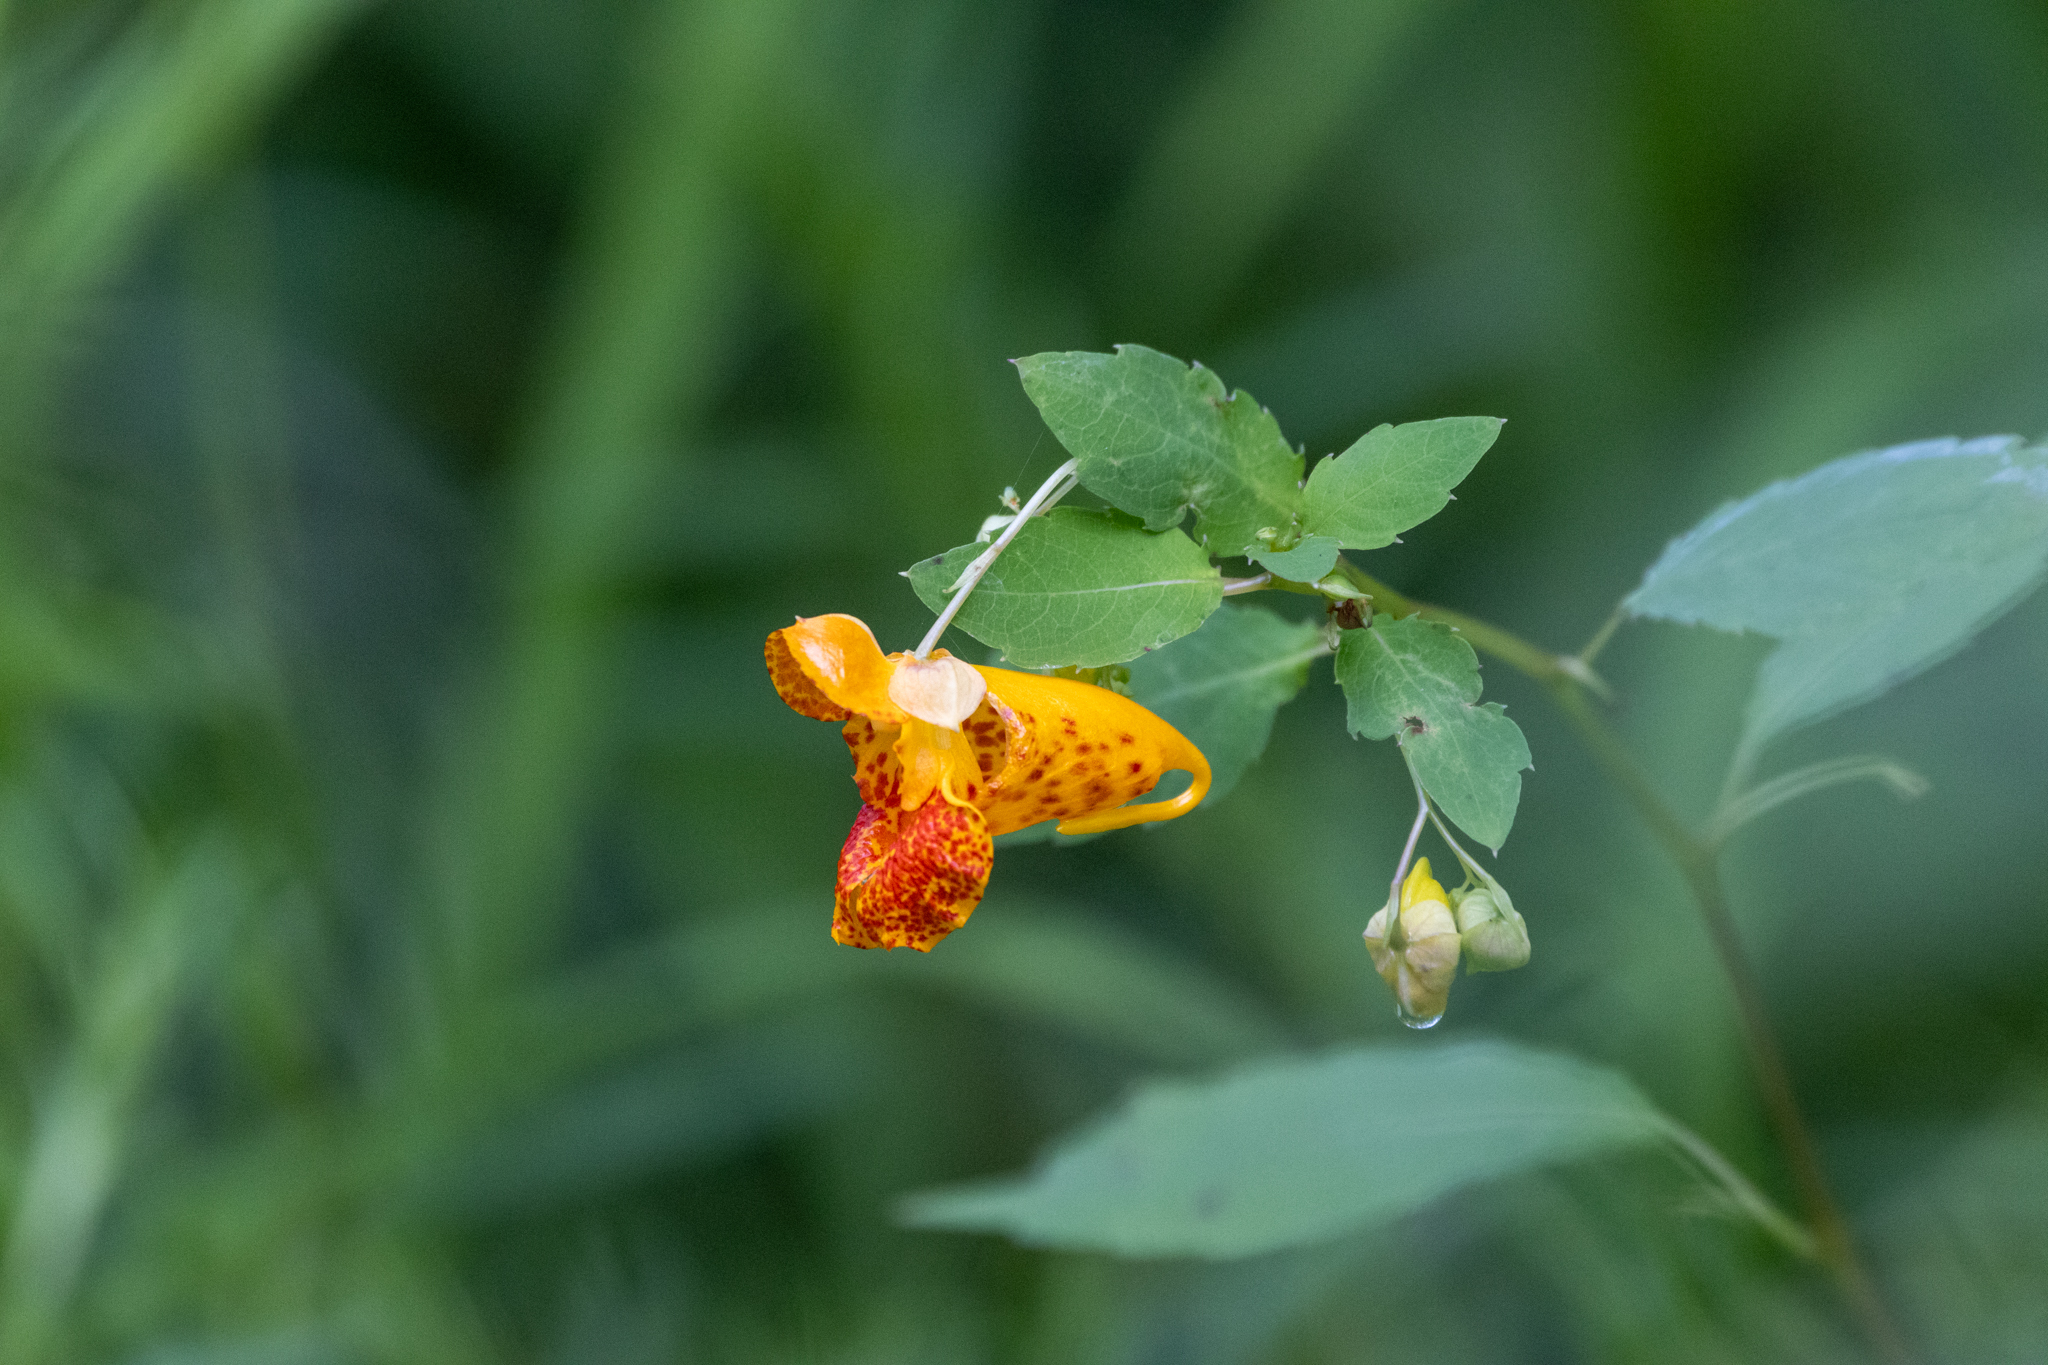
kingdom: Plantae
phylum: Tracheophyta
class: Magnoliopsida
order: Ericales
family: Balsaminaceae
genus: Impatiens
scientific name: Impatiens capensis
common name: Orange balsam
